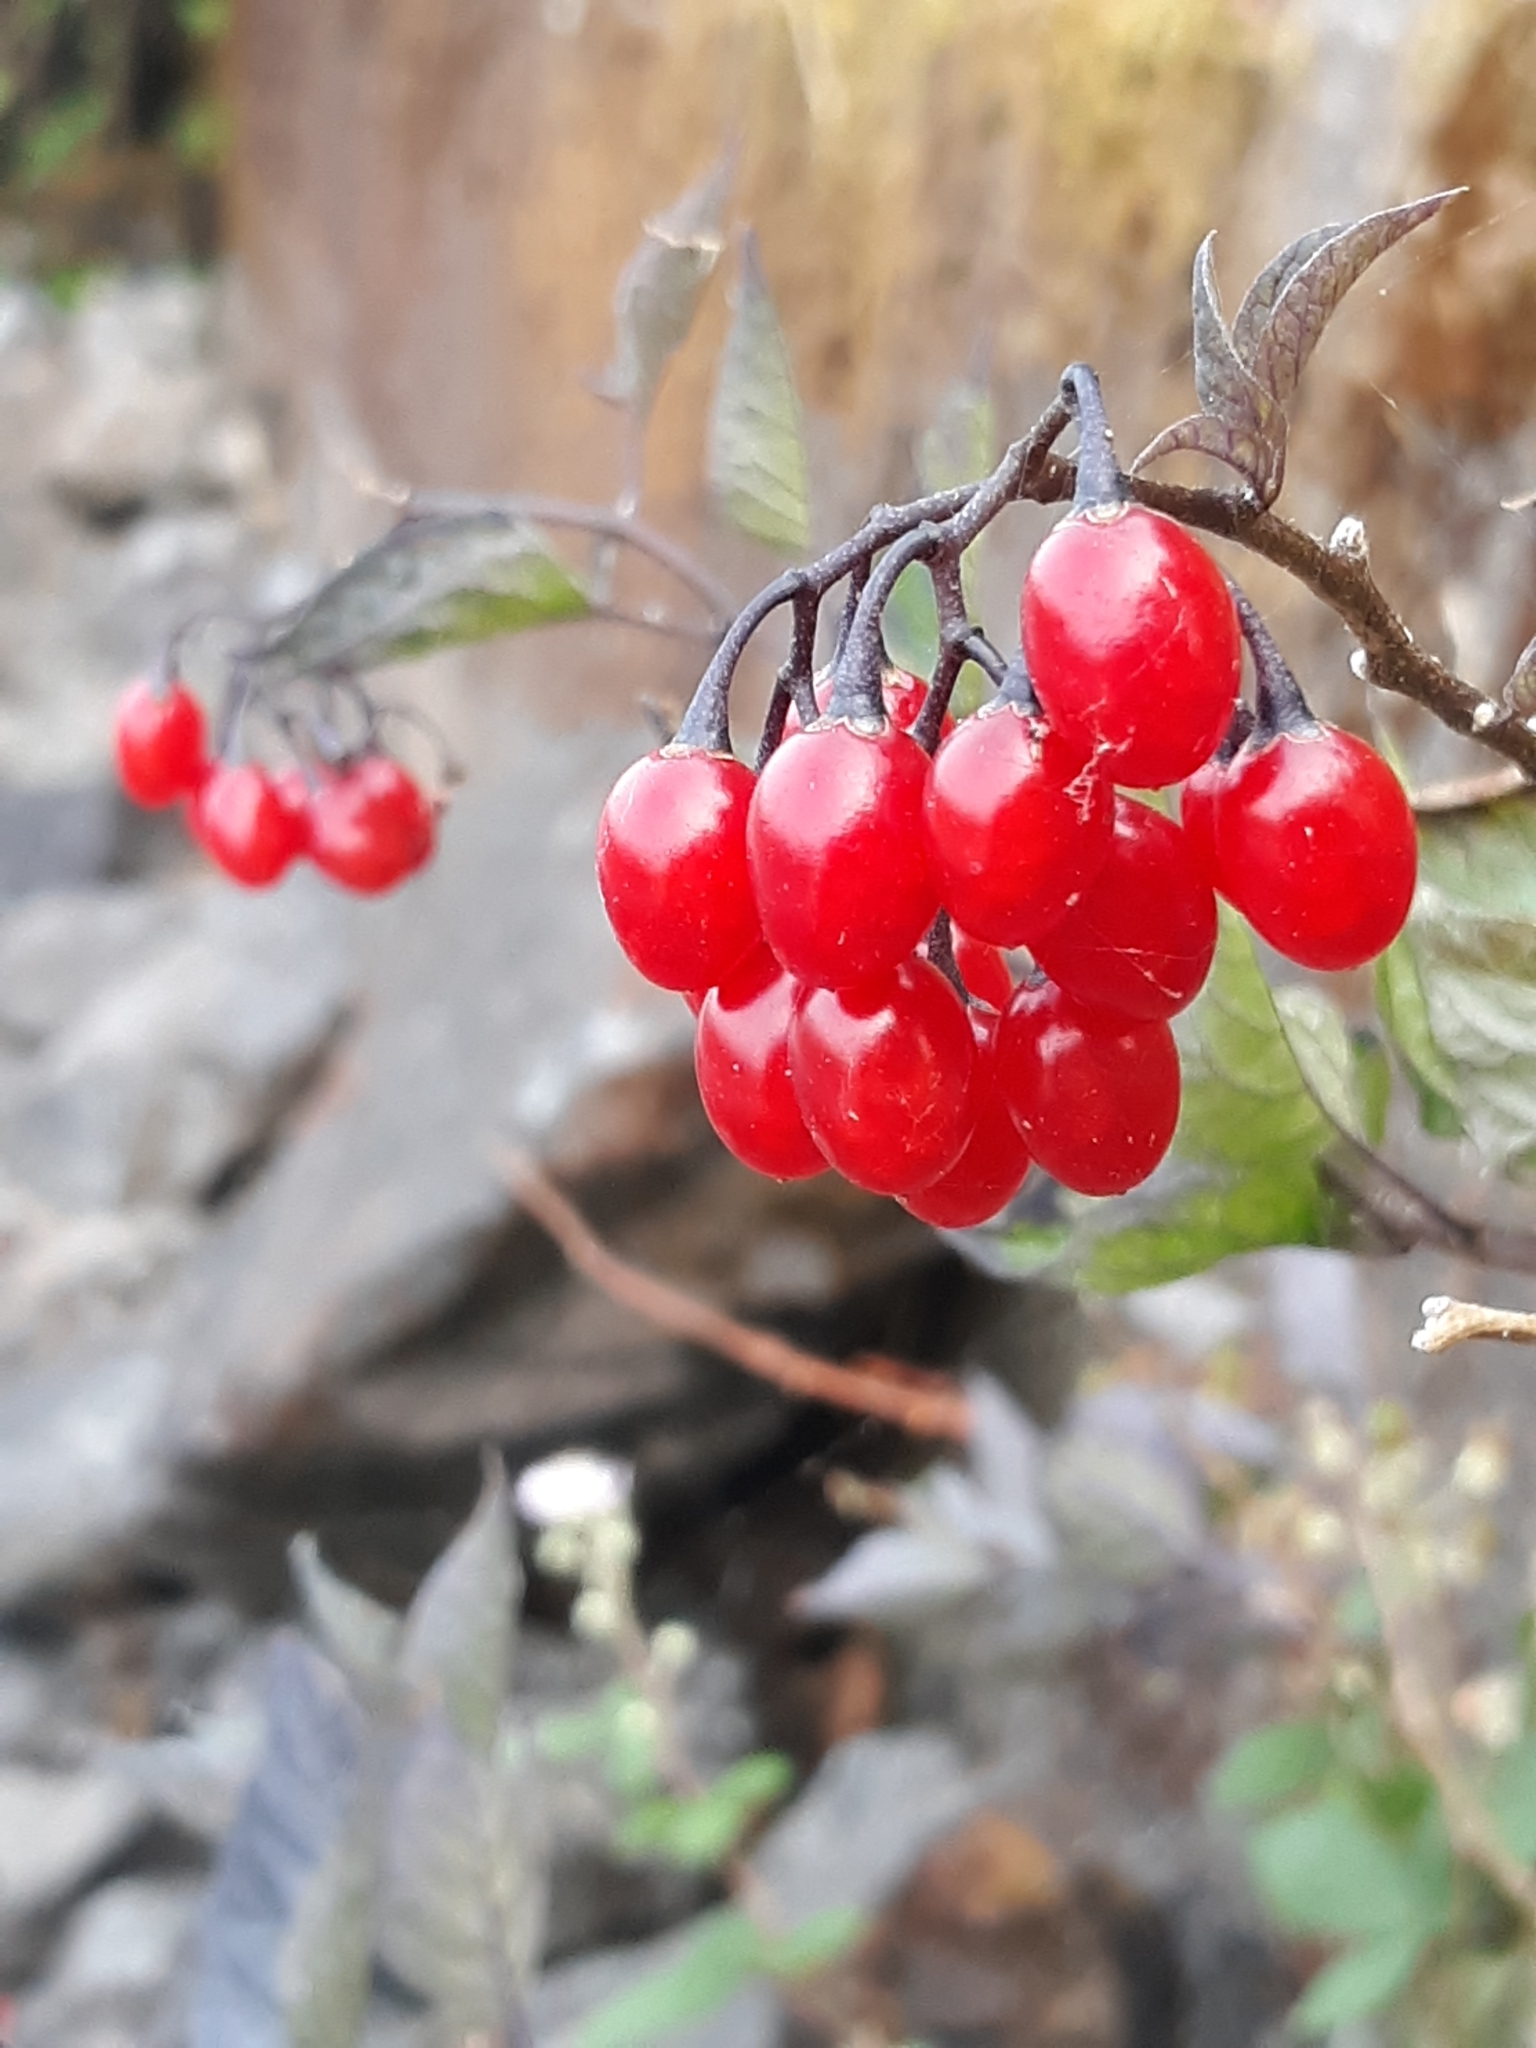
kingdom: Plantae
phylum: Tracheophyta
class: Magnoliopsida
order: Solanales
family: Solanaceae
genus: Solanum
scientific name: Solanum dulcamara
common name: Climbing nightshade
